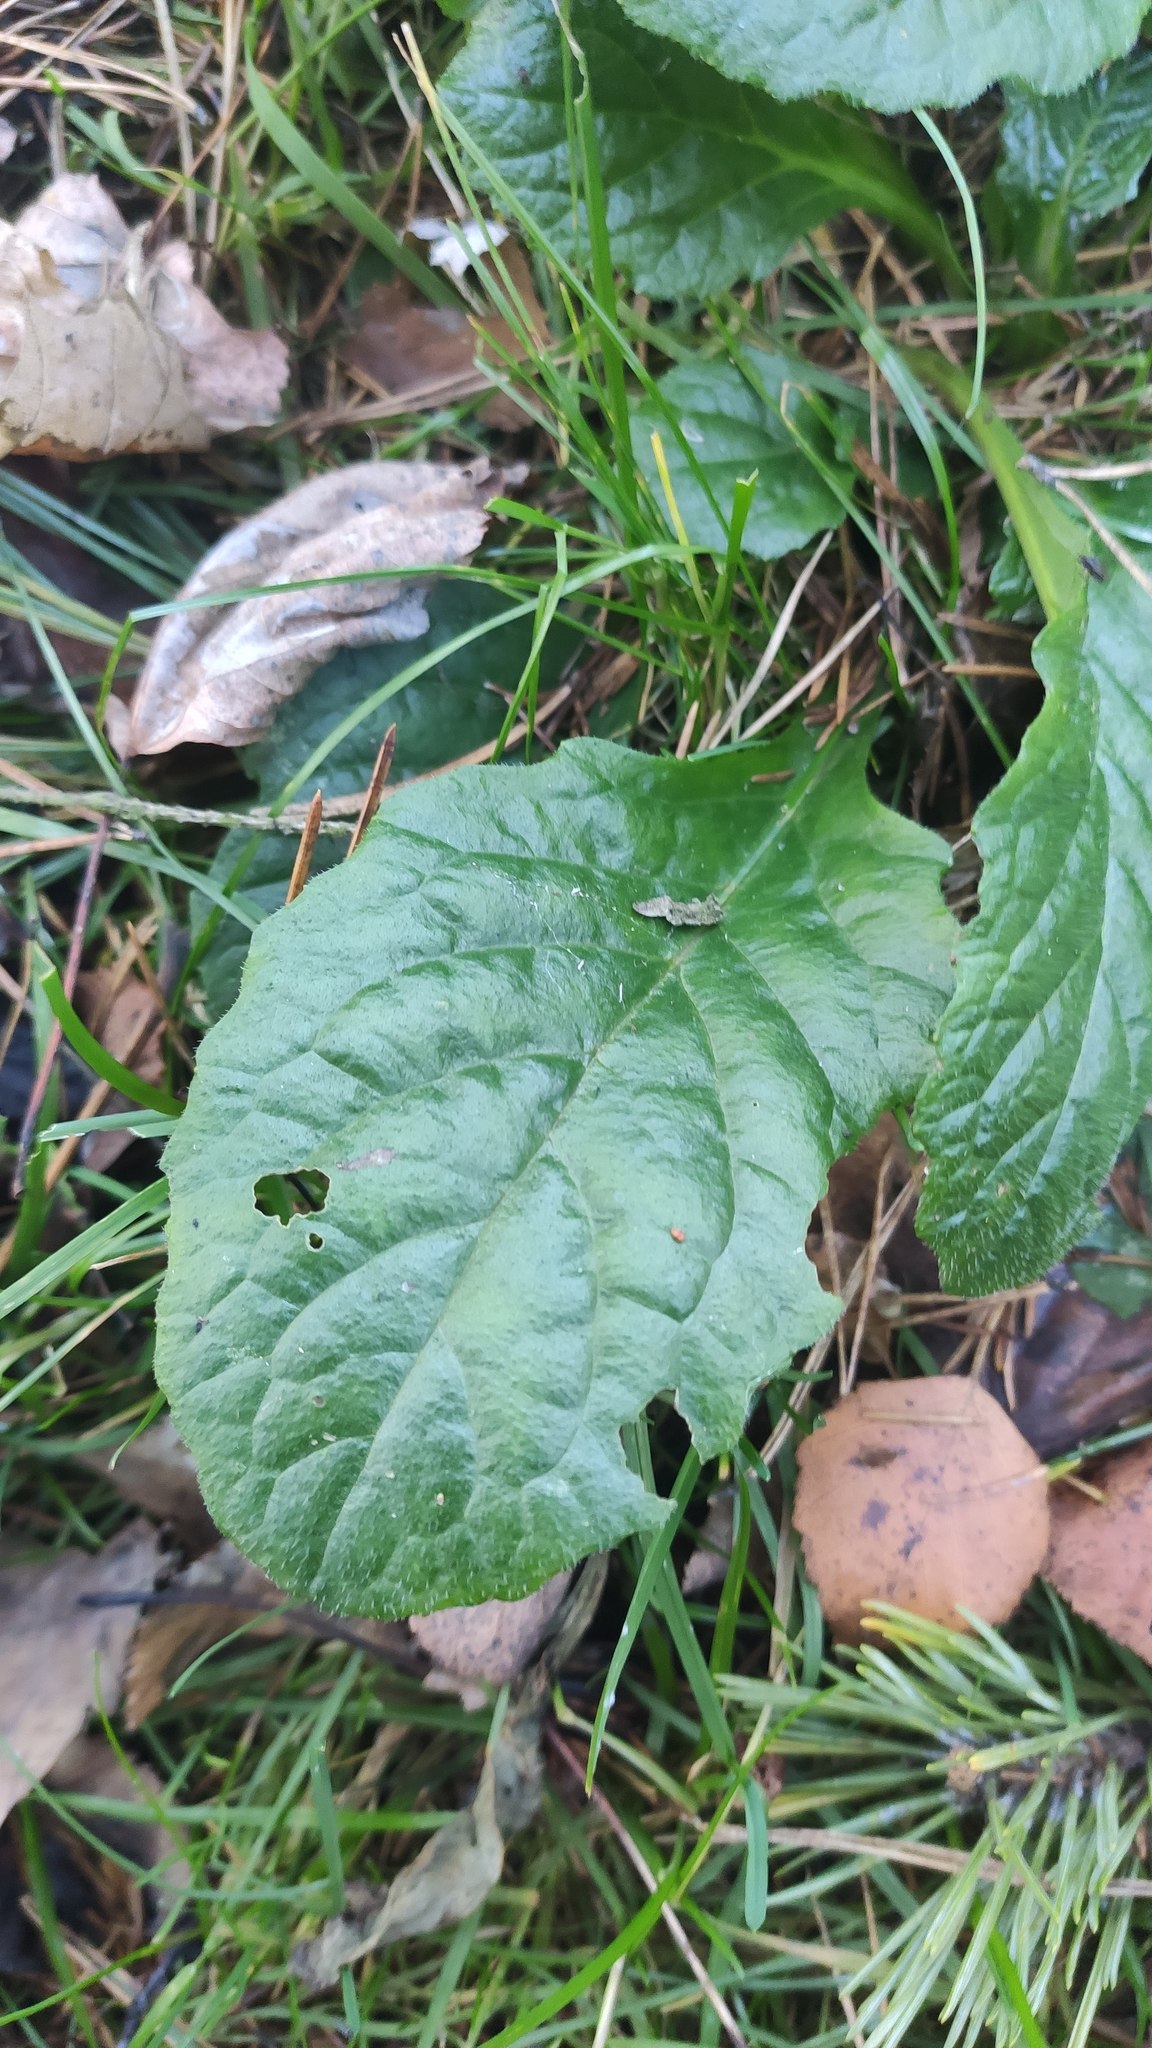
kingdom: Plantae
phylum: Tracheophyta
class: Magnoliopsida
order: Lamiales
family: Lamiaceae
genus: Ajuga
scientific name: Ajuga reptans
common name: Bugle
